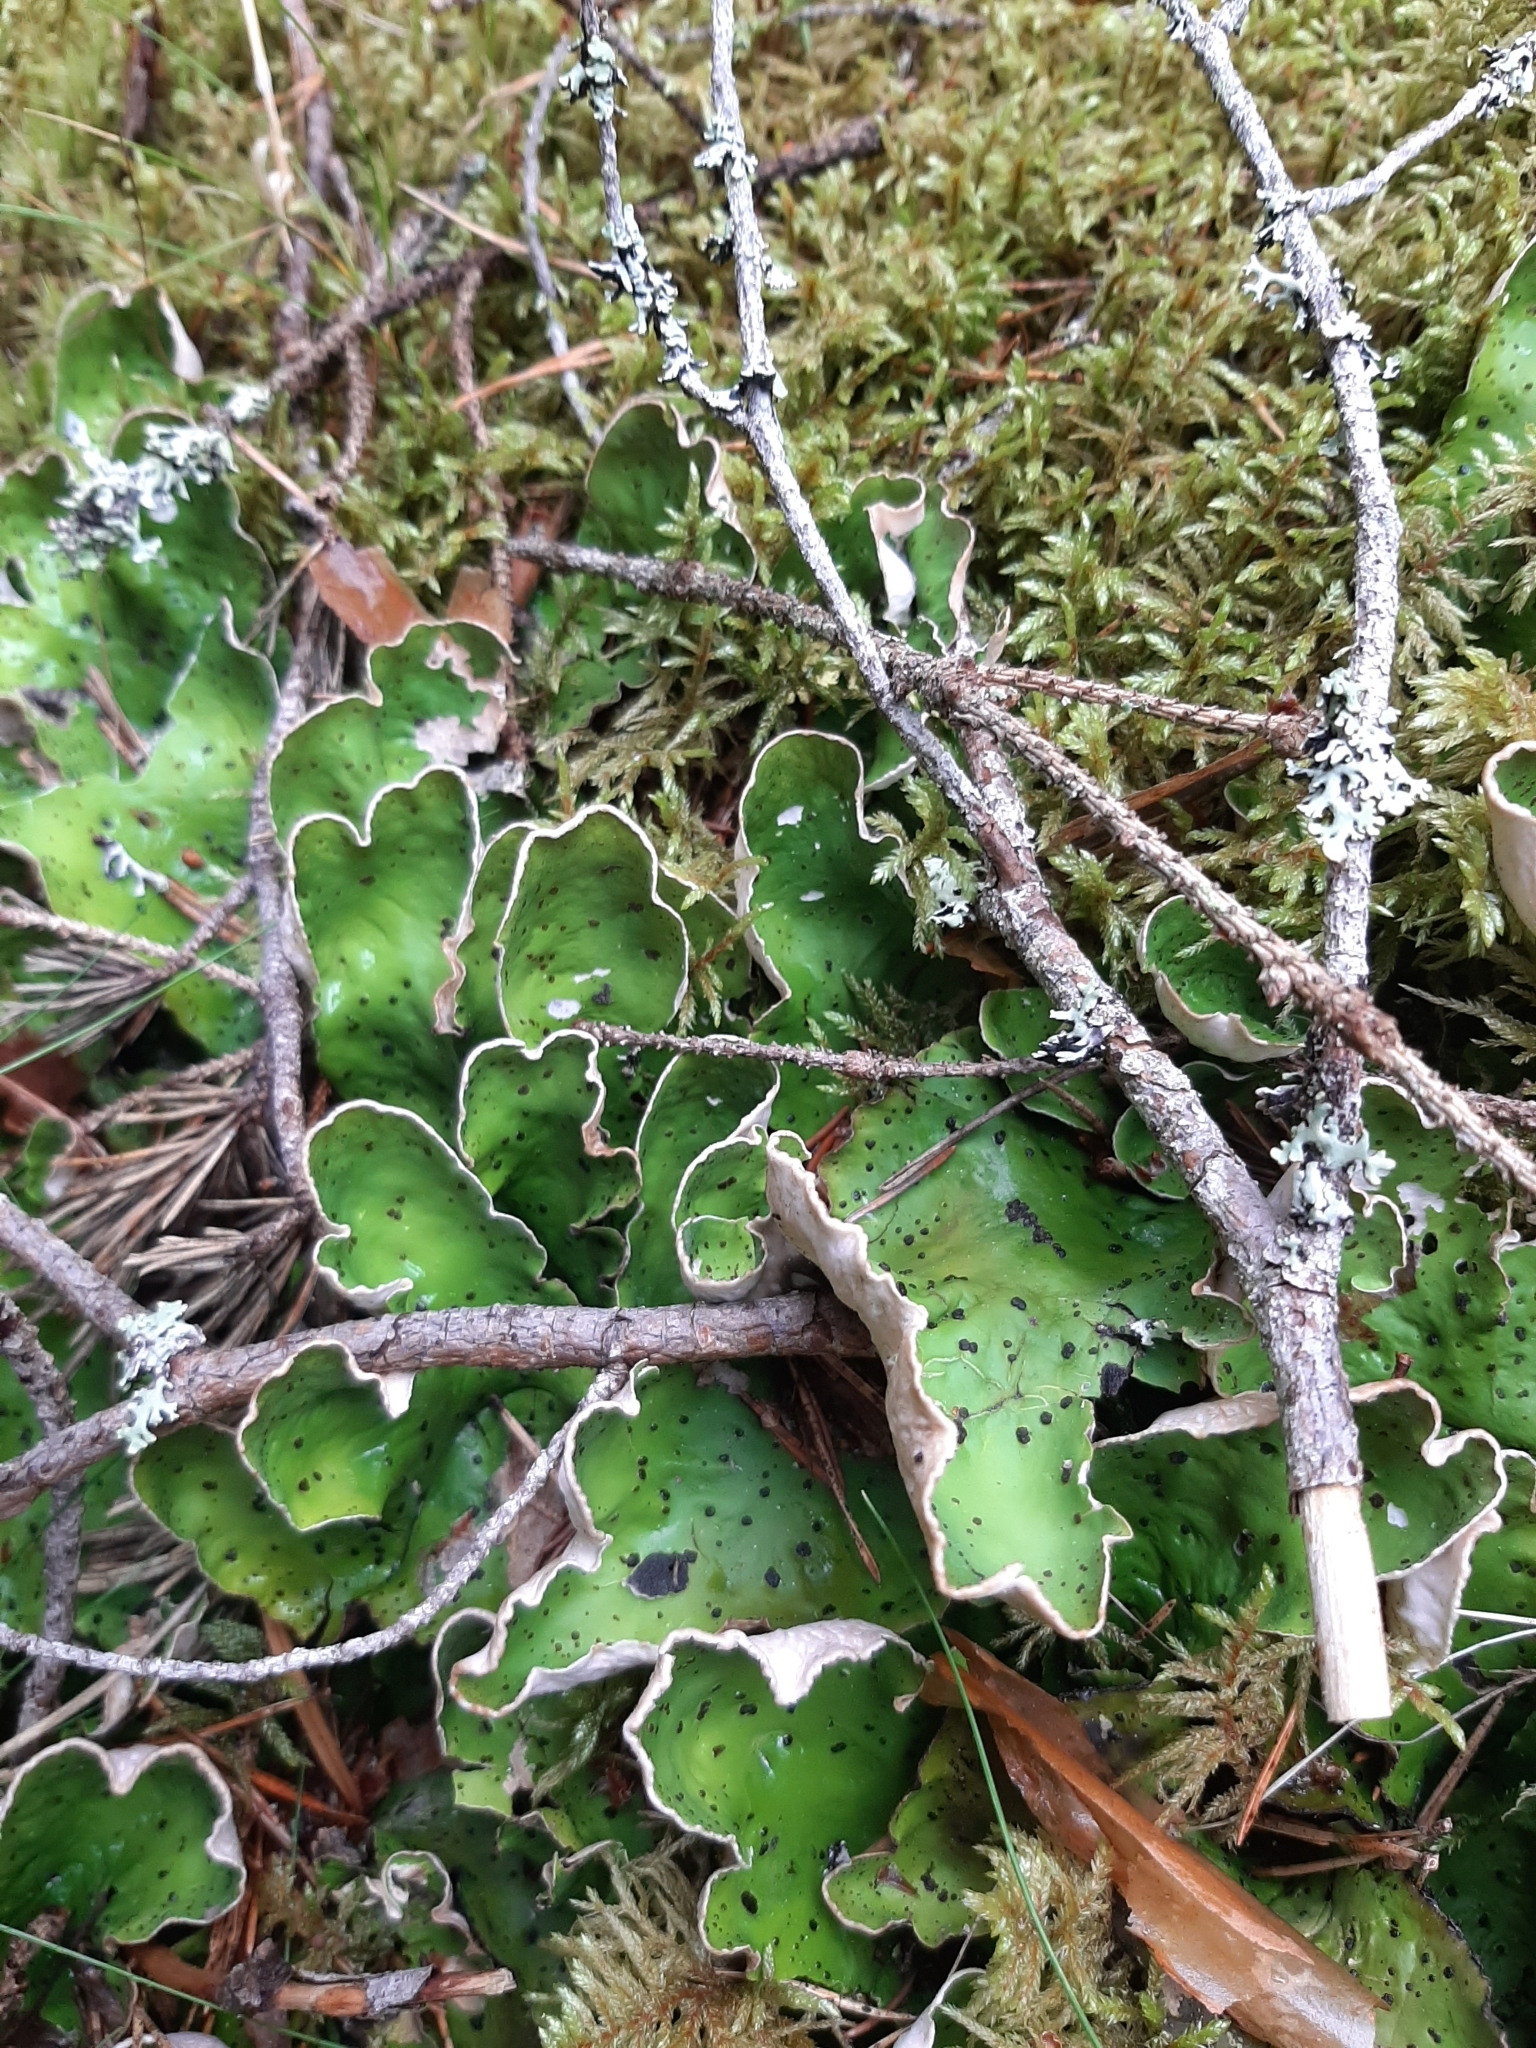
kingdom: Fungi
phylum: Ascomycota
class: Lecanoromycetes
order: Peltigerales
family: Peltigeraceae
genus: Peltigera
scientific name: Peltigera aphthosa
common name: Common freckle pelt lichen
